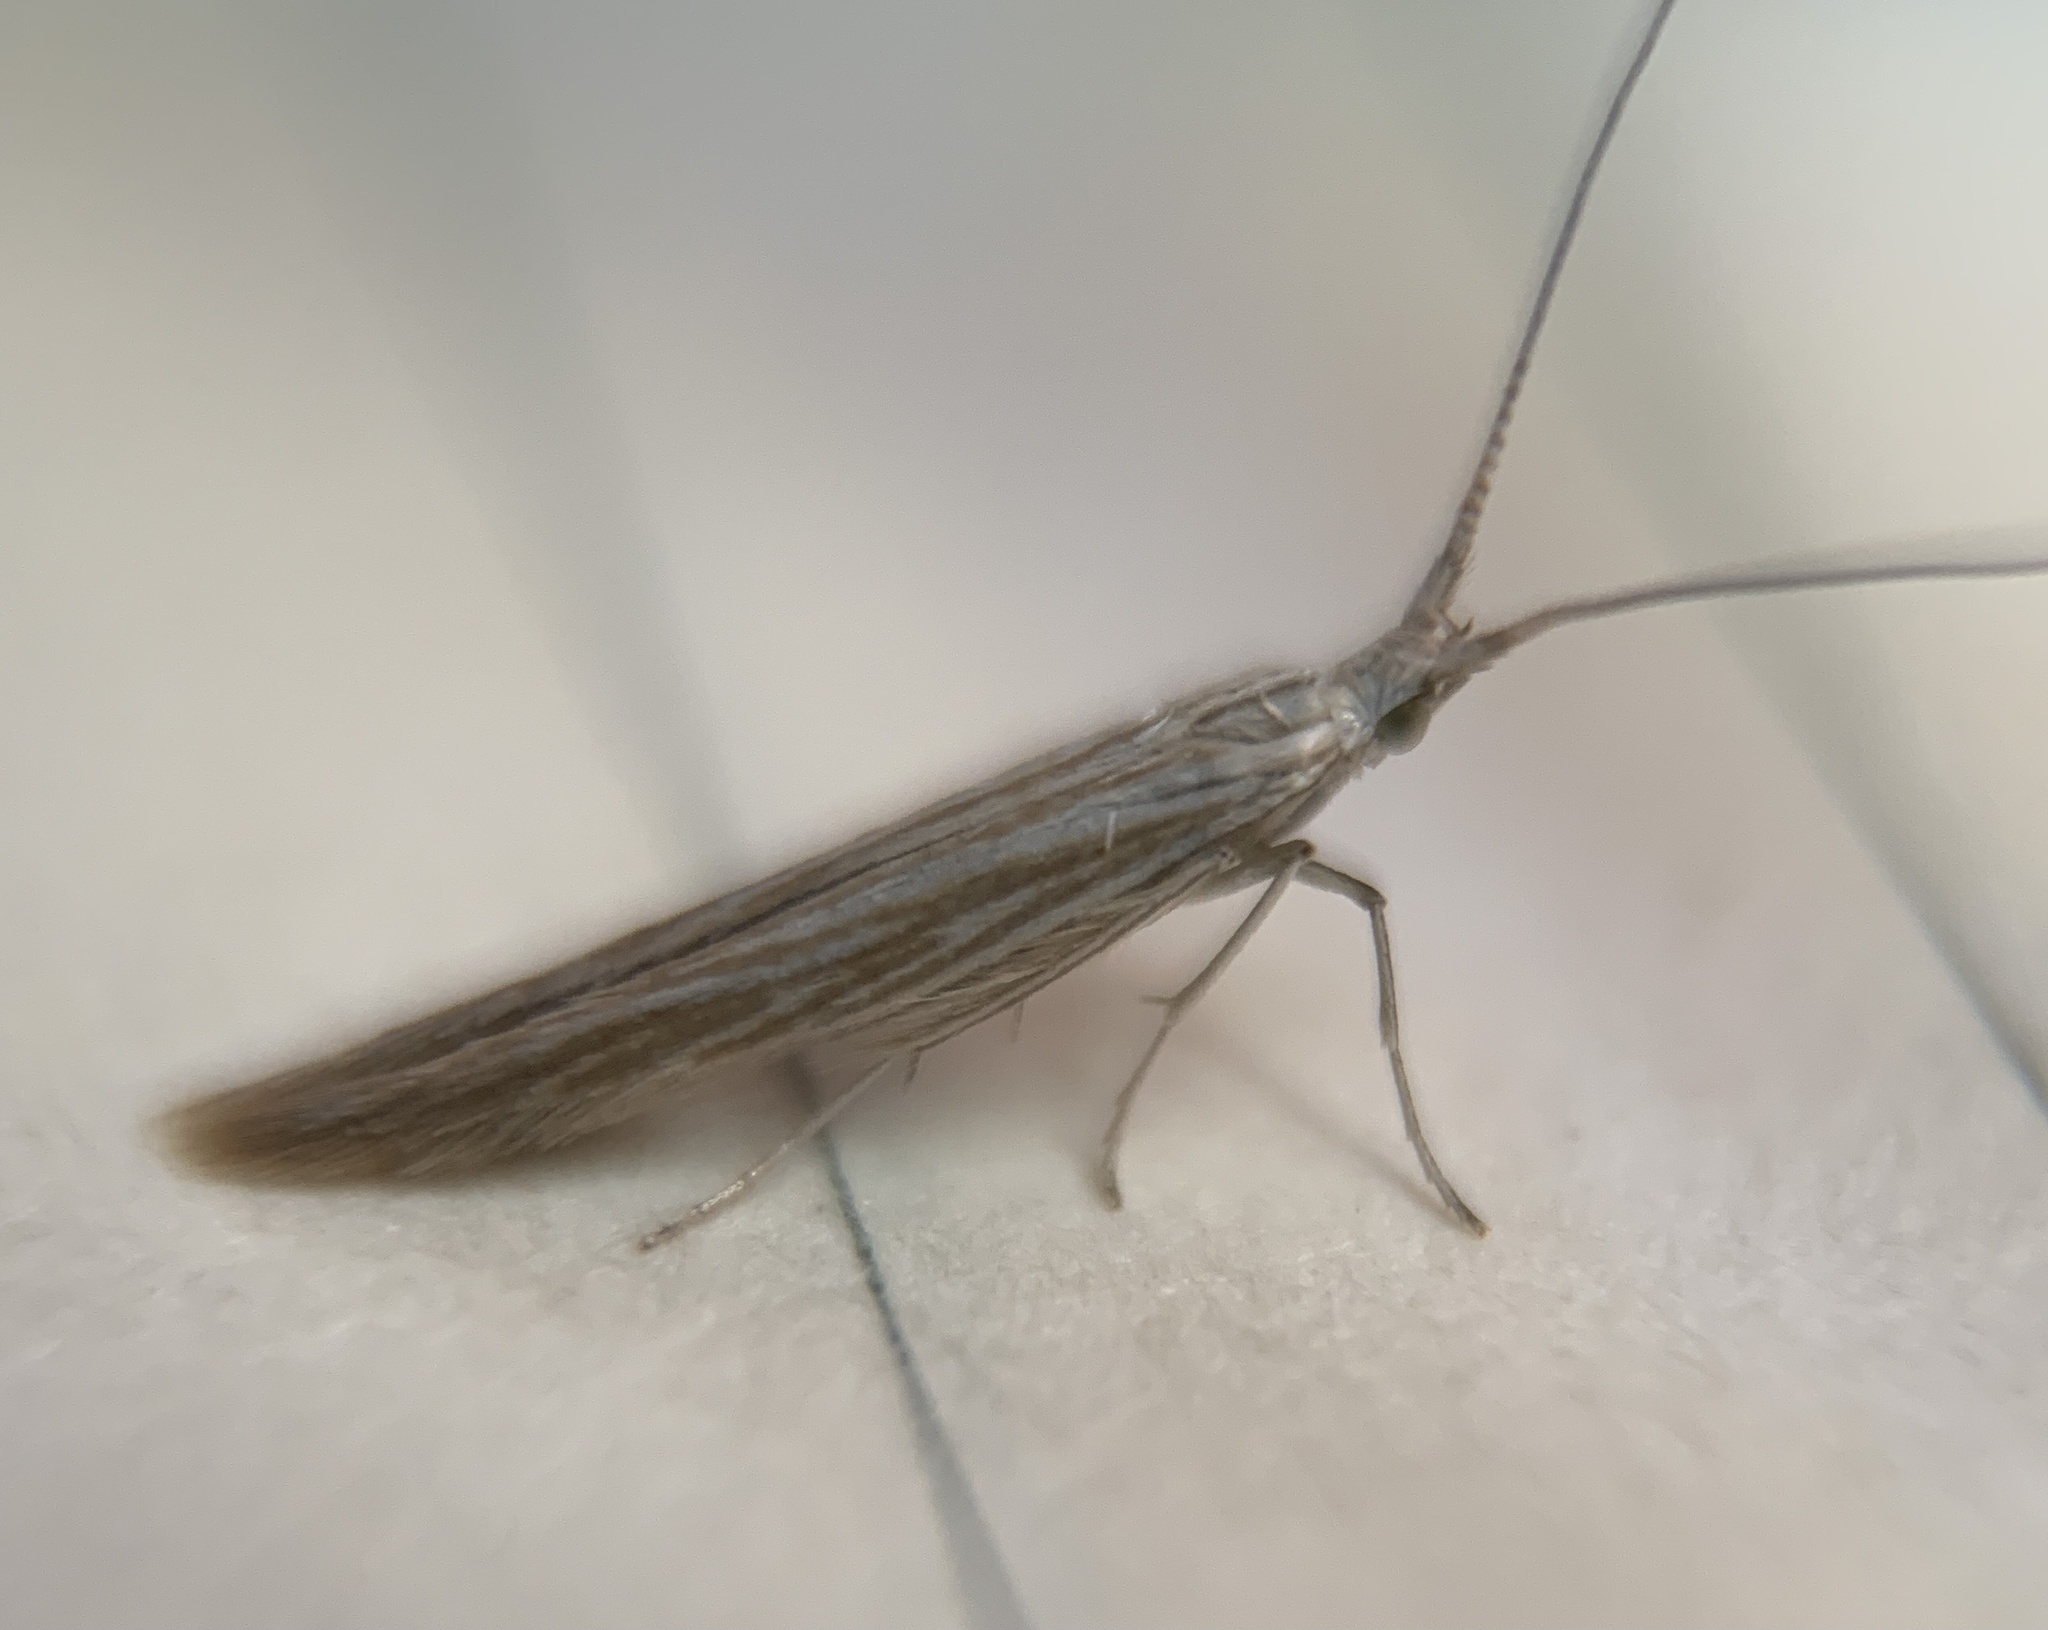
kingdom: Animalia
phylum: Arthropoda
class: Insecta
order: Lepidoptera
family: Coleophoridae
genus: Coleophora
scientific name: Coleophora cratipennella
